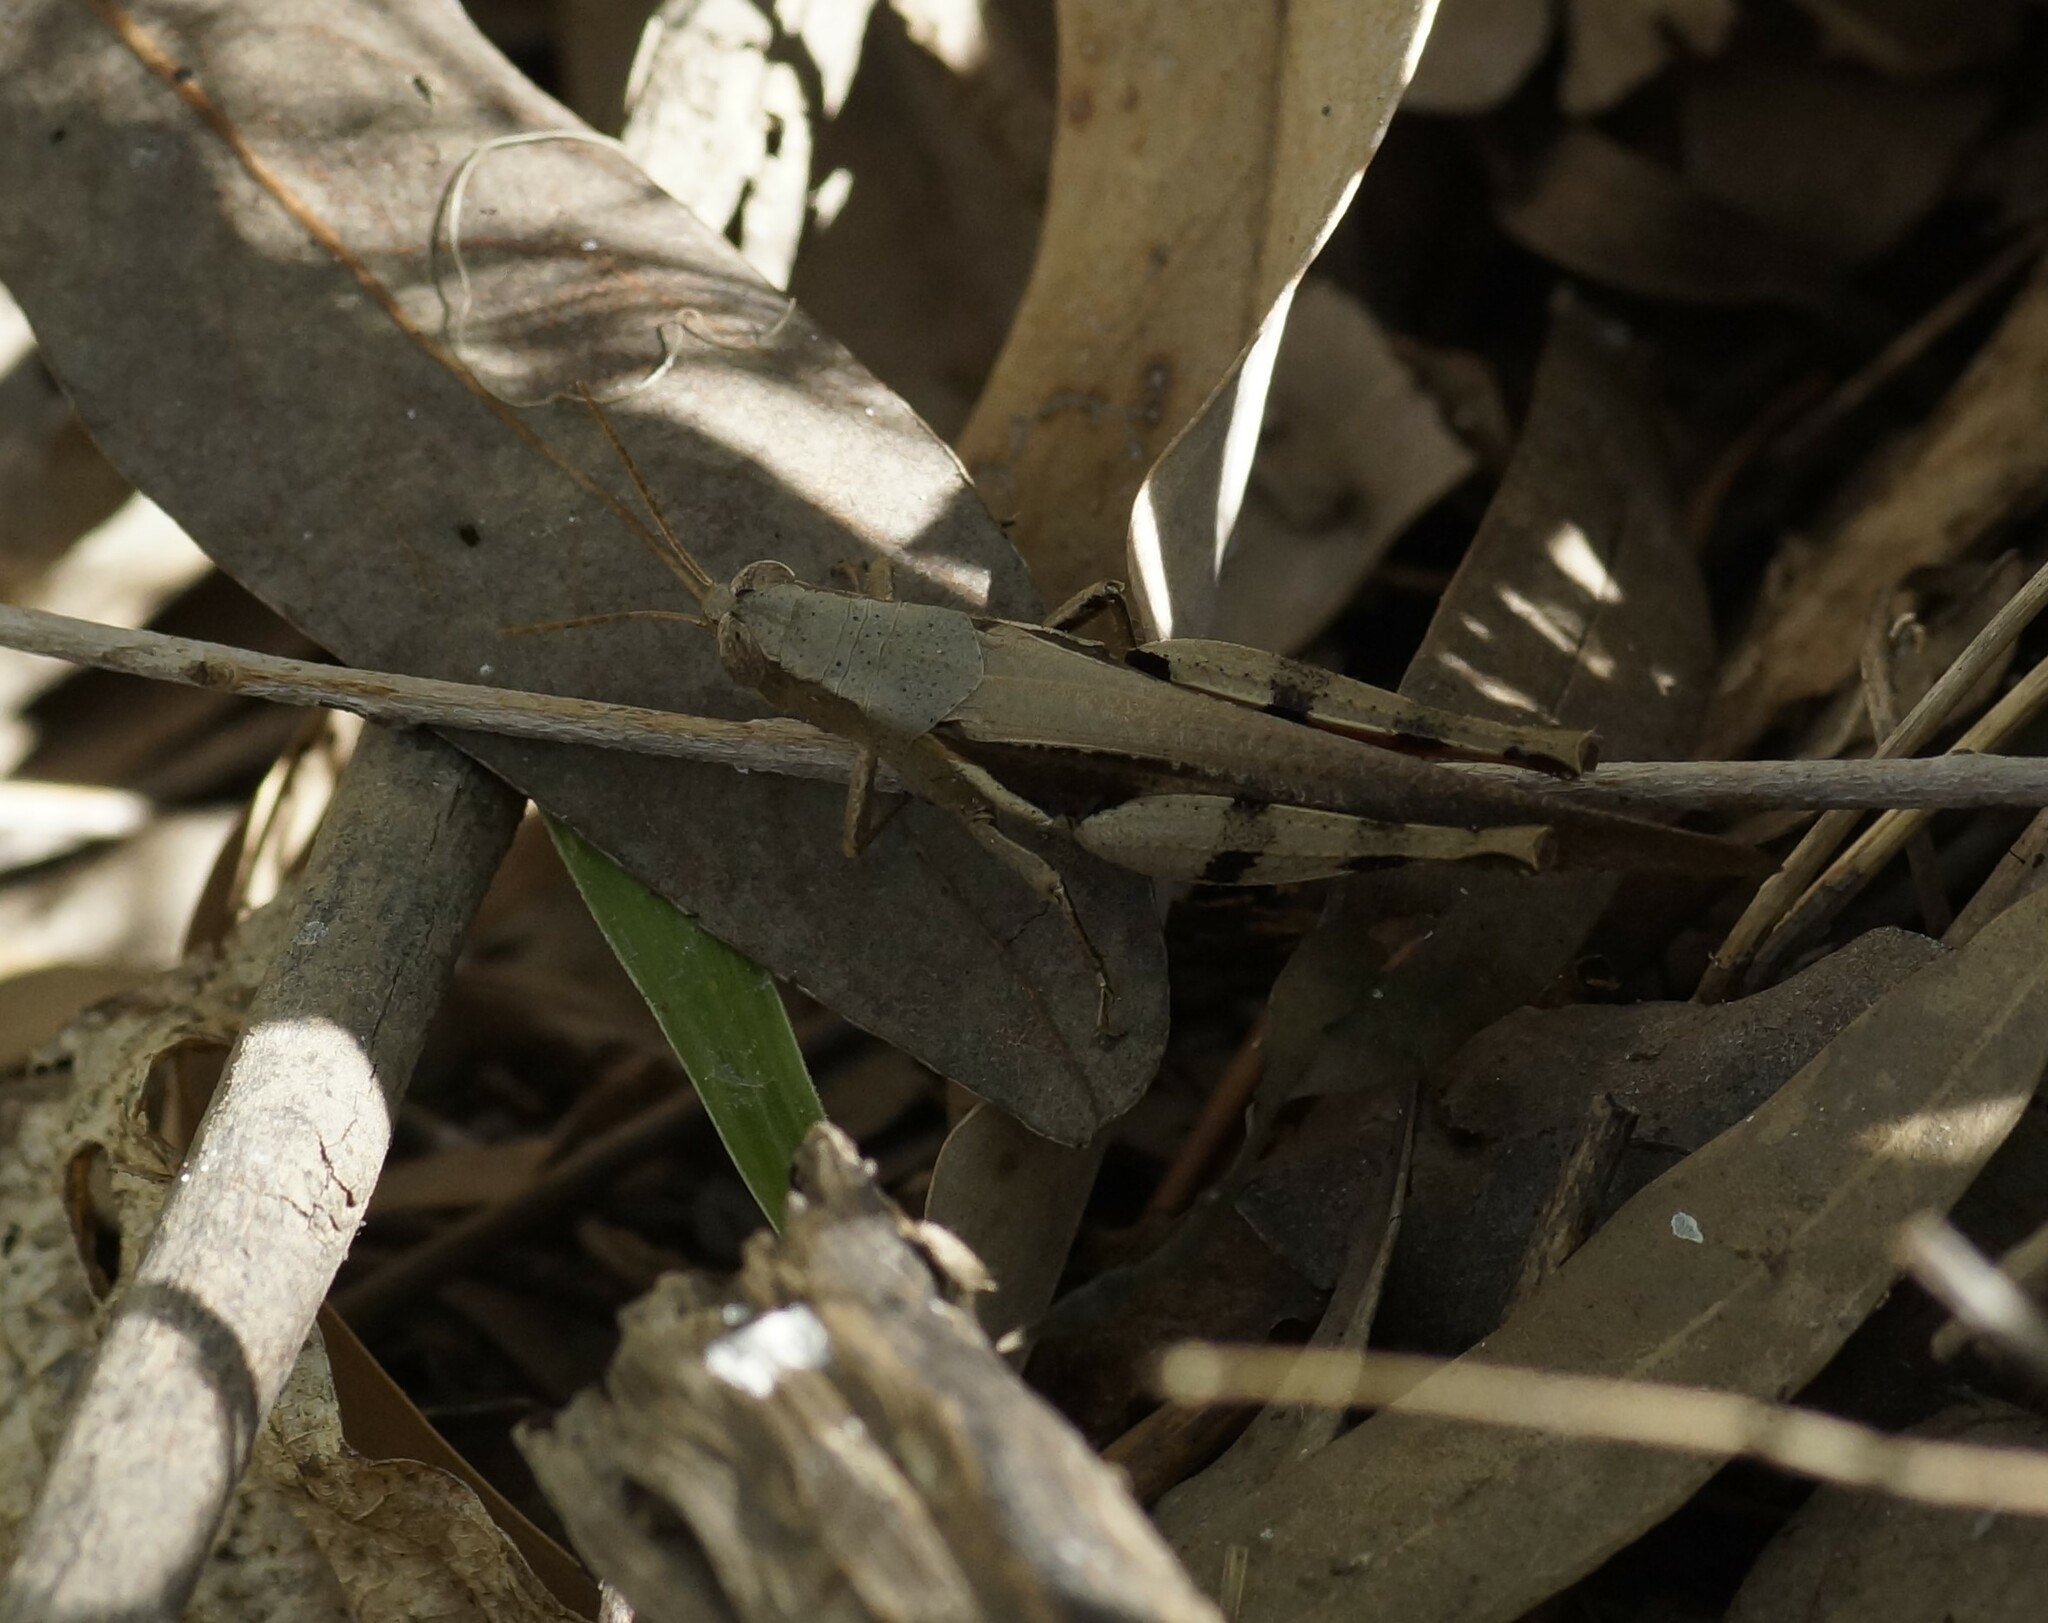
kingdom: Animalia
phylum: Arthropoda
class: Insecta
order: Orthoptera
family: Acrididae
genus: Stenocatantops
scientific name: Stenocatantops angustifrons
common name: Common tropical sharptail
